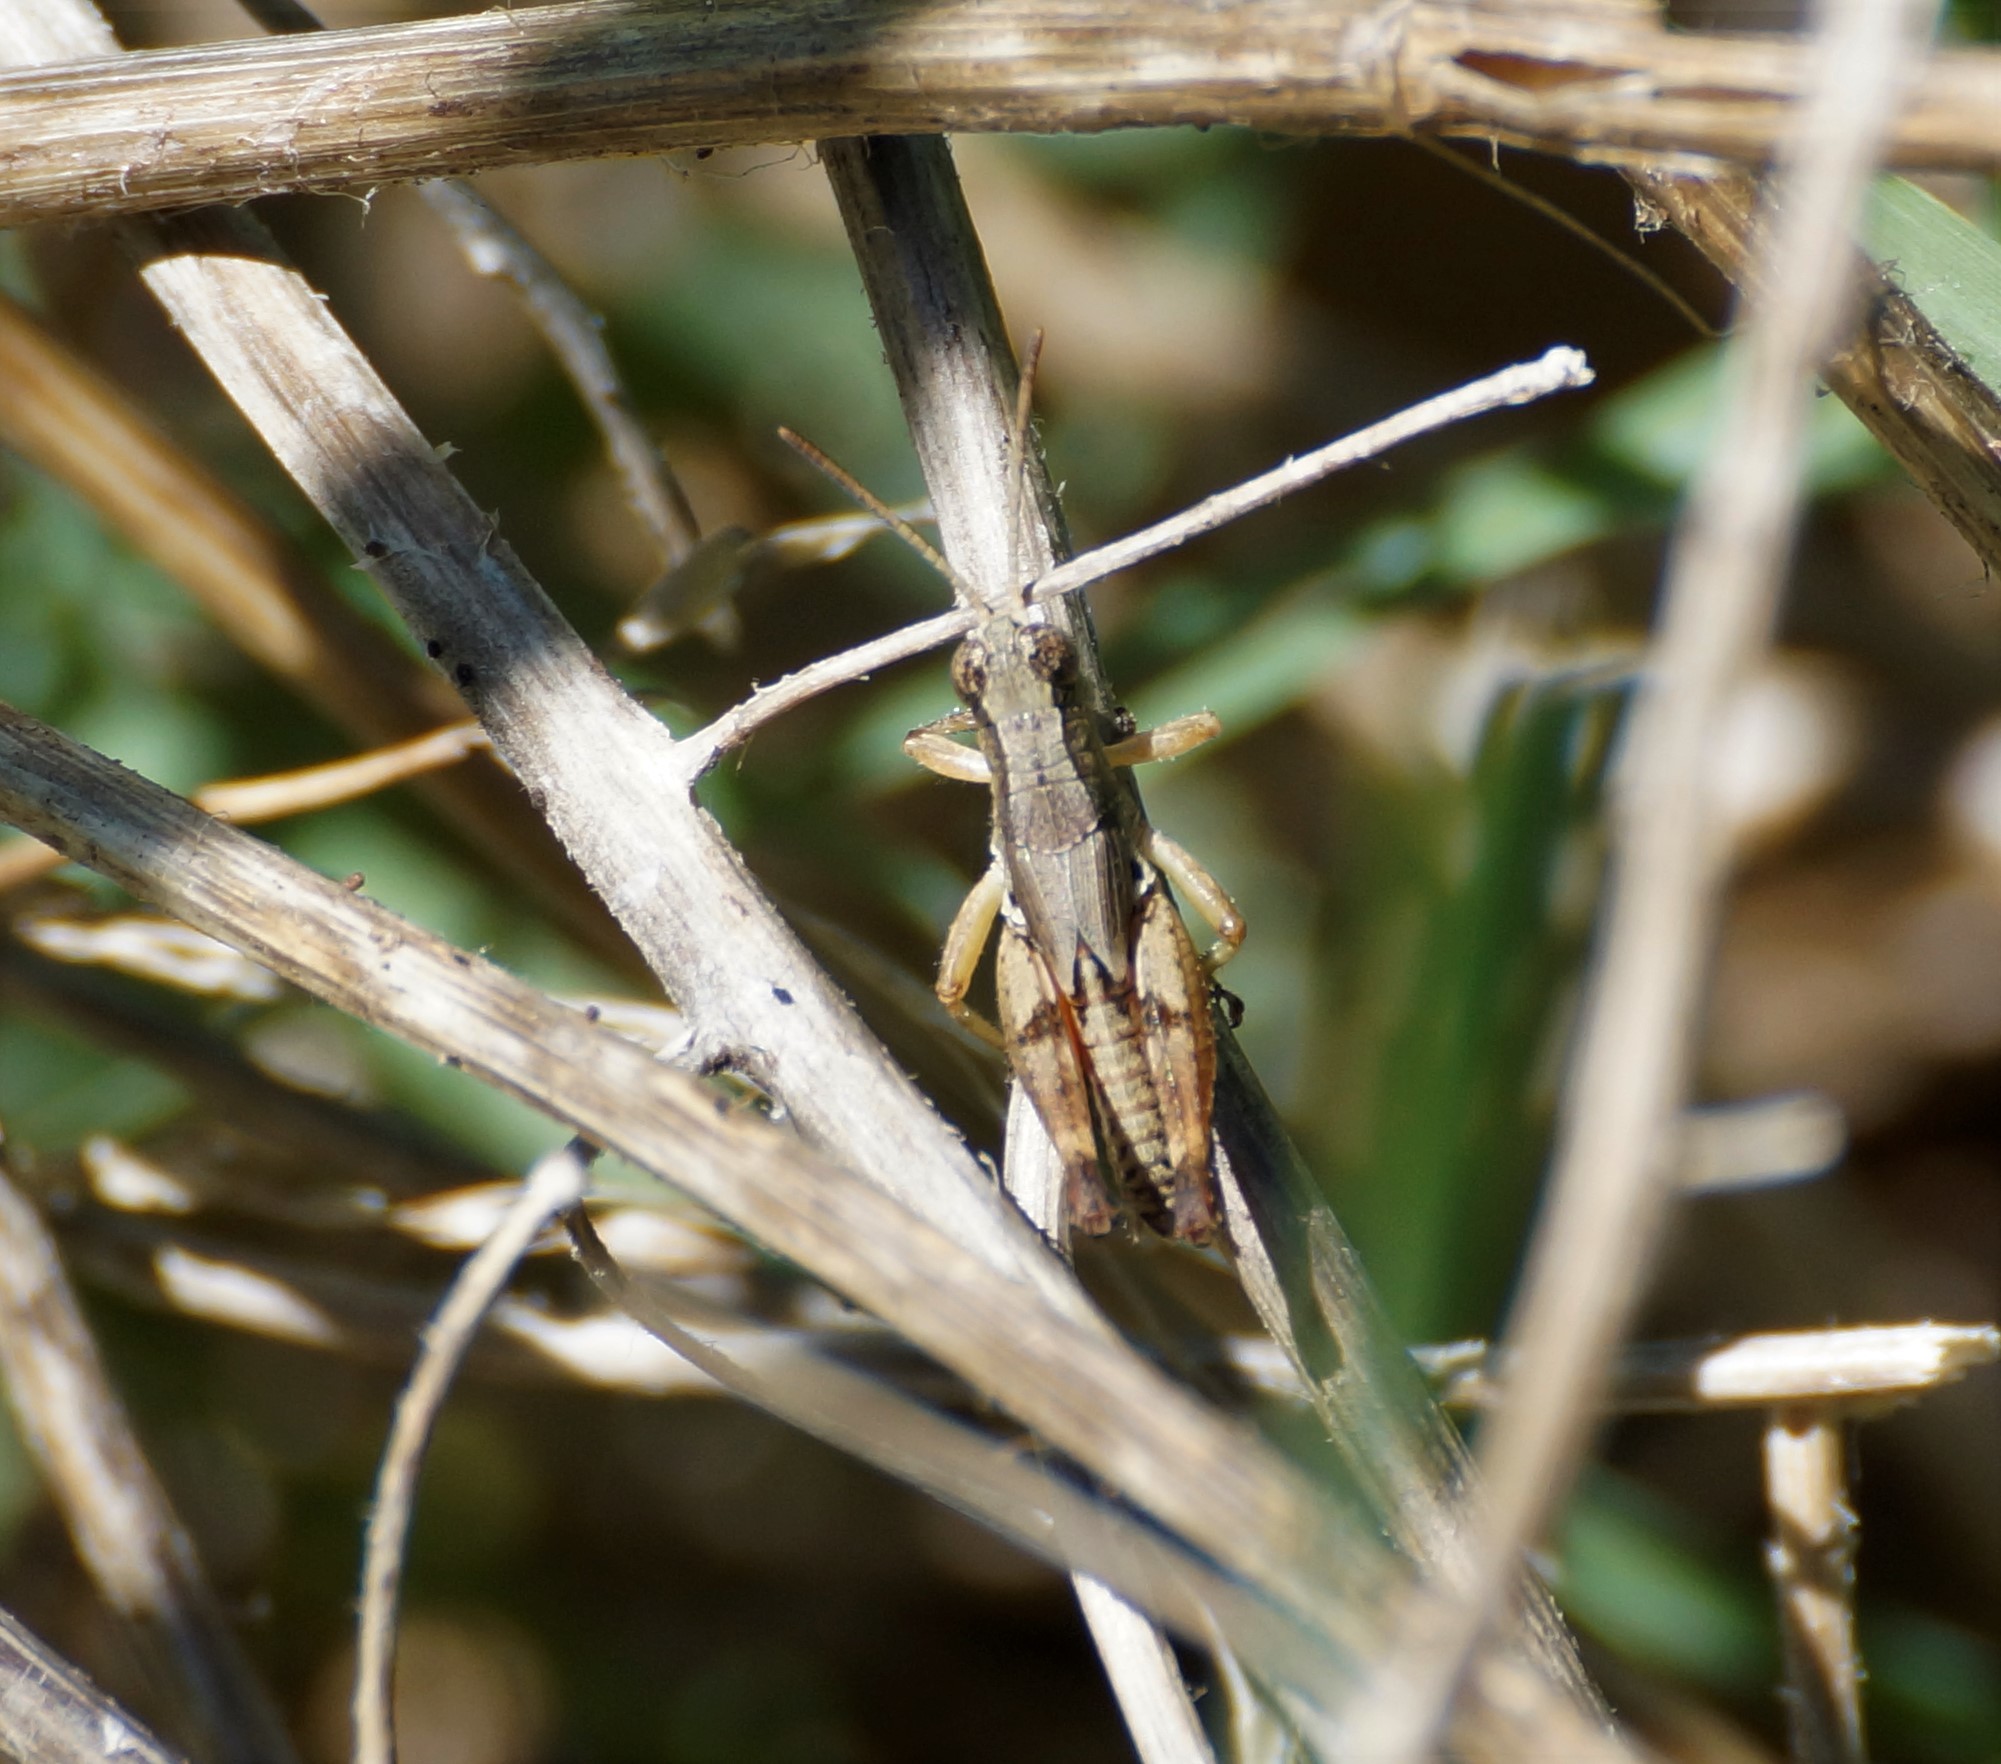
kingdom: Animalia
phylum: Arthropoda
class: Insecta
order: Orthoptera
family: Acrididae
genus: Phaulacridium
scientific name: Phaulacridium vittatum
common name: Wingless grasshopper
